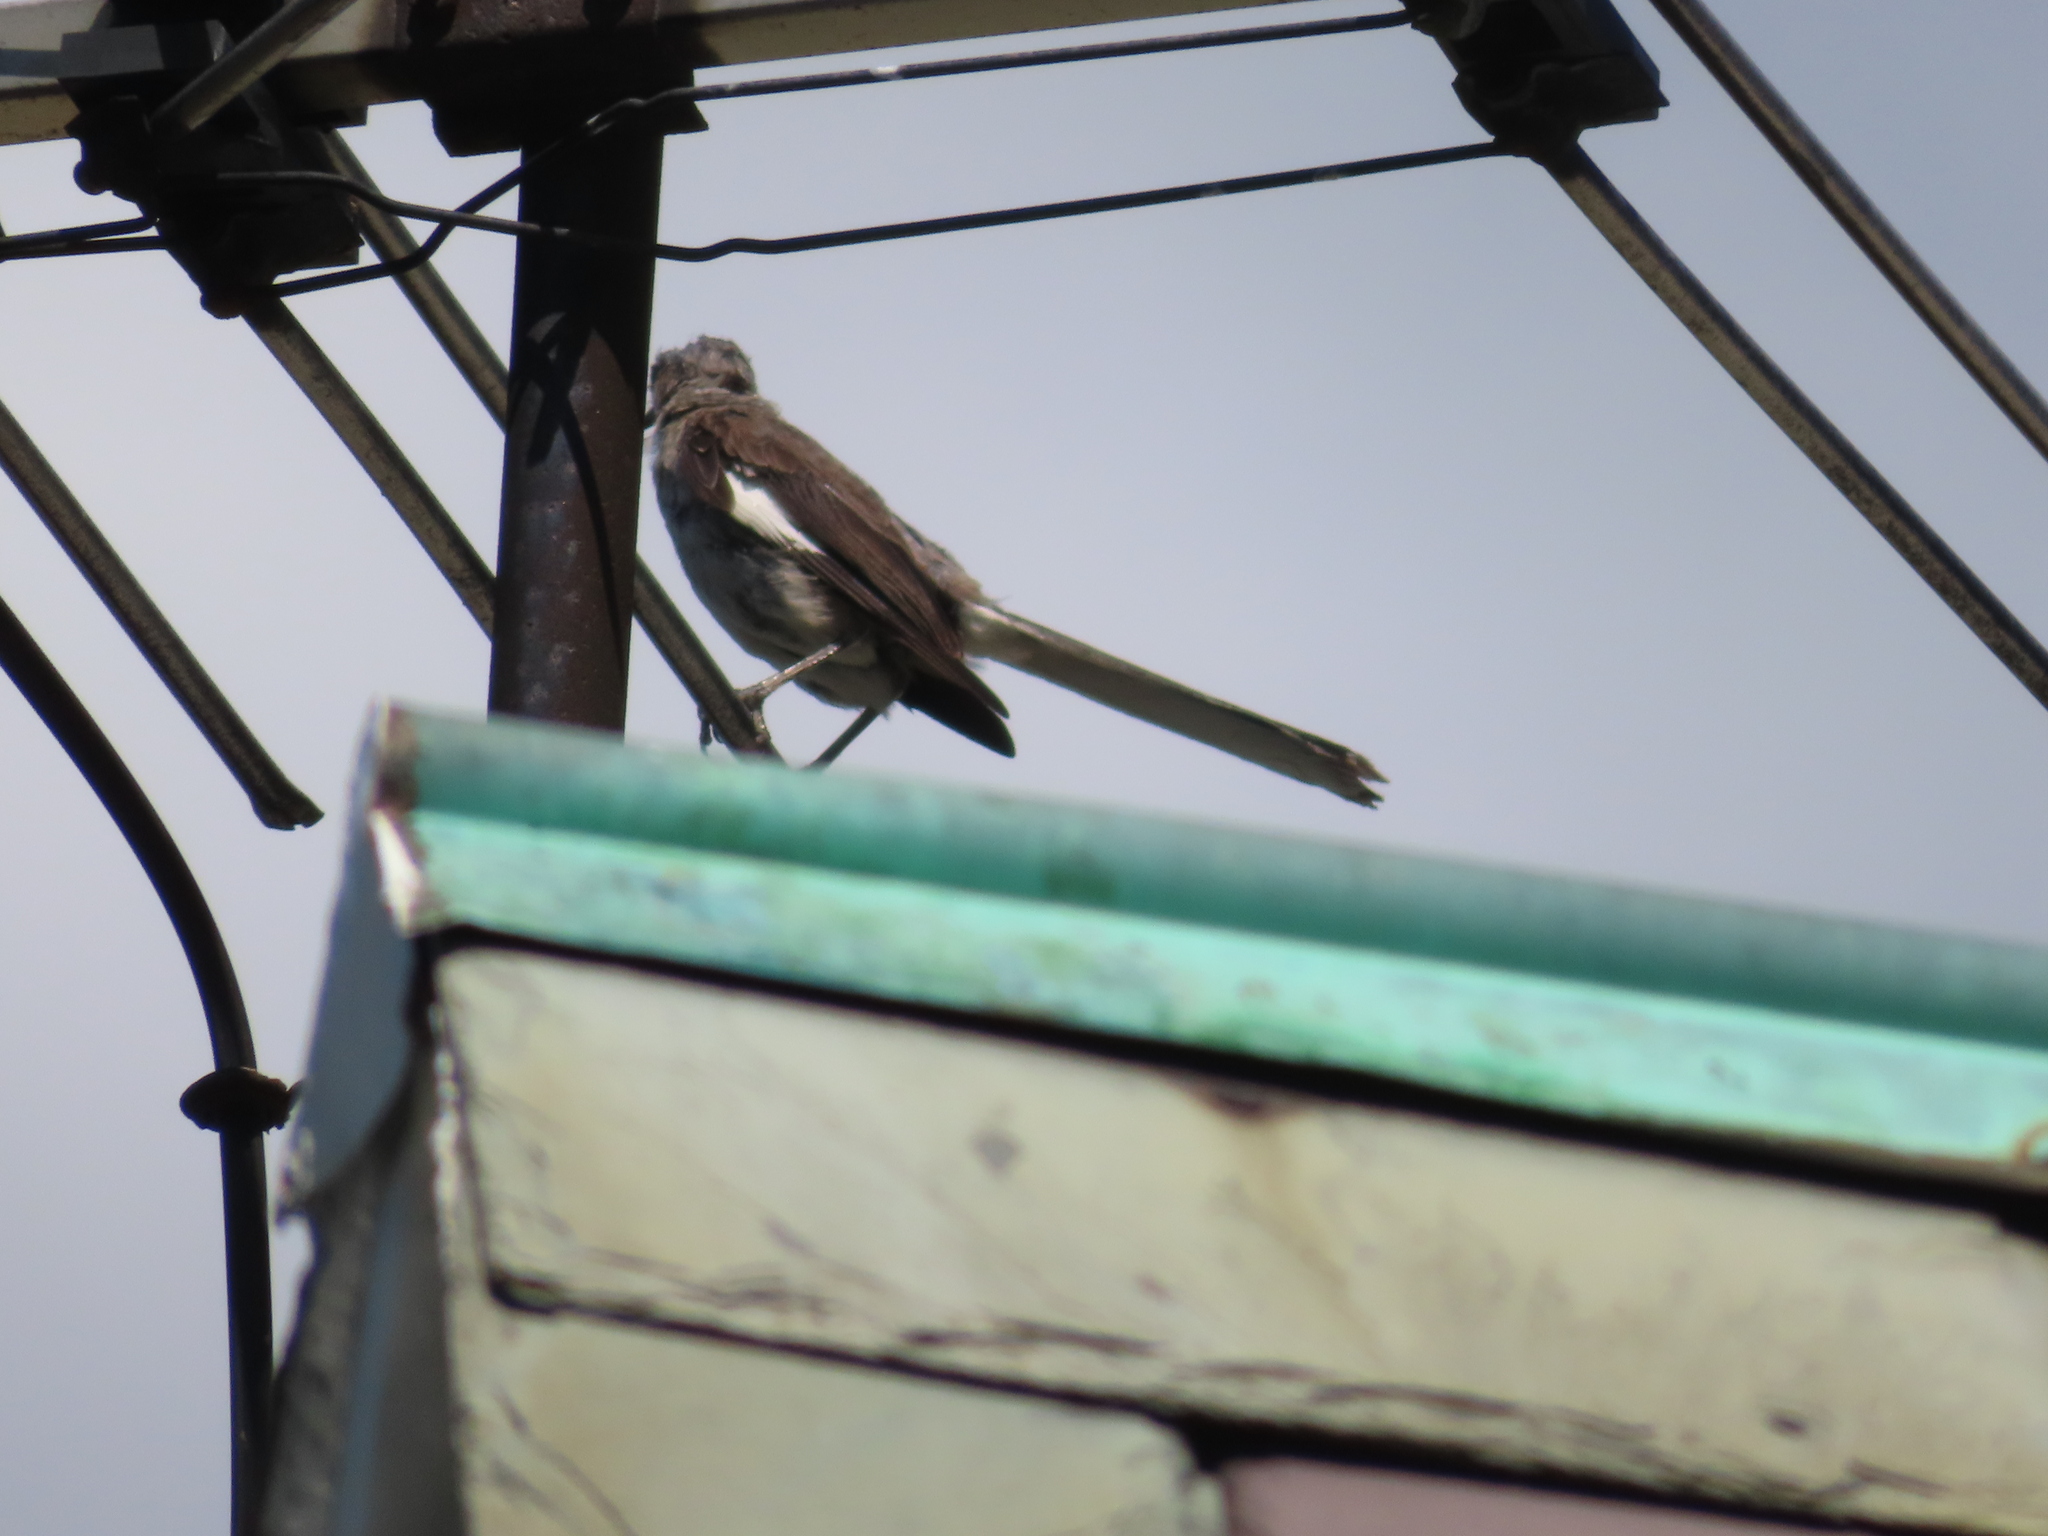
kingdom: Animalia
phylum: Chordata
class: Aves
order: Passeriformes
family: Mimidae
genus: Mimus
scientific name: Mimus polyglottos
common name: Northern mockingbird
